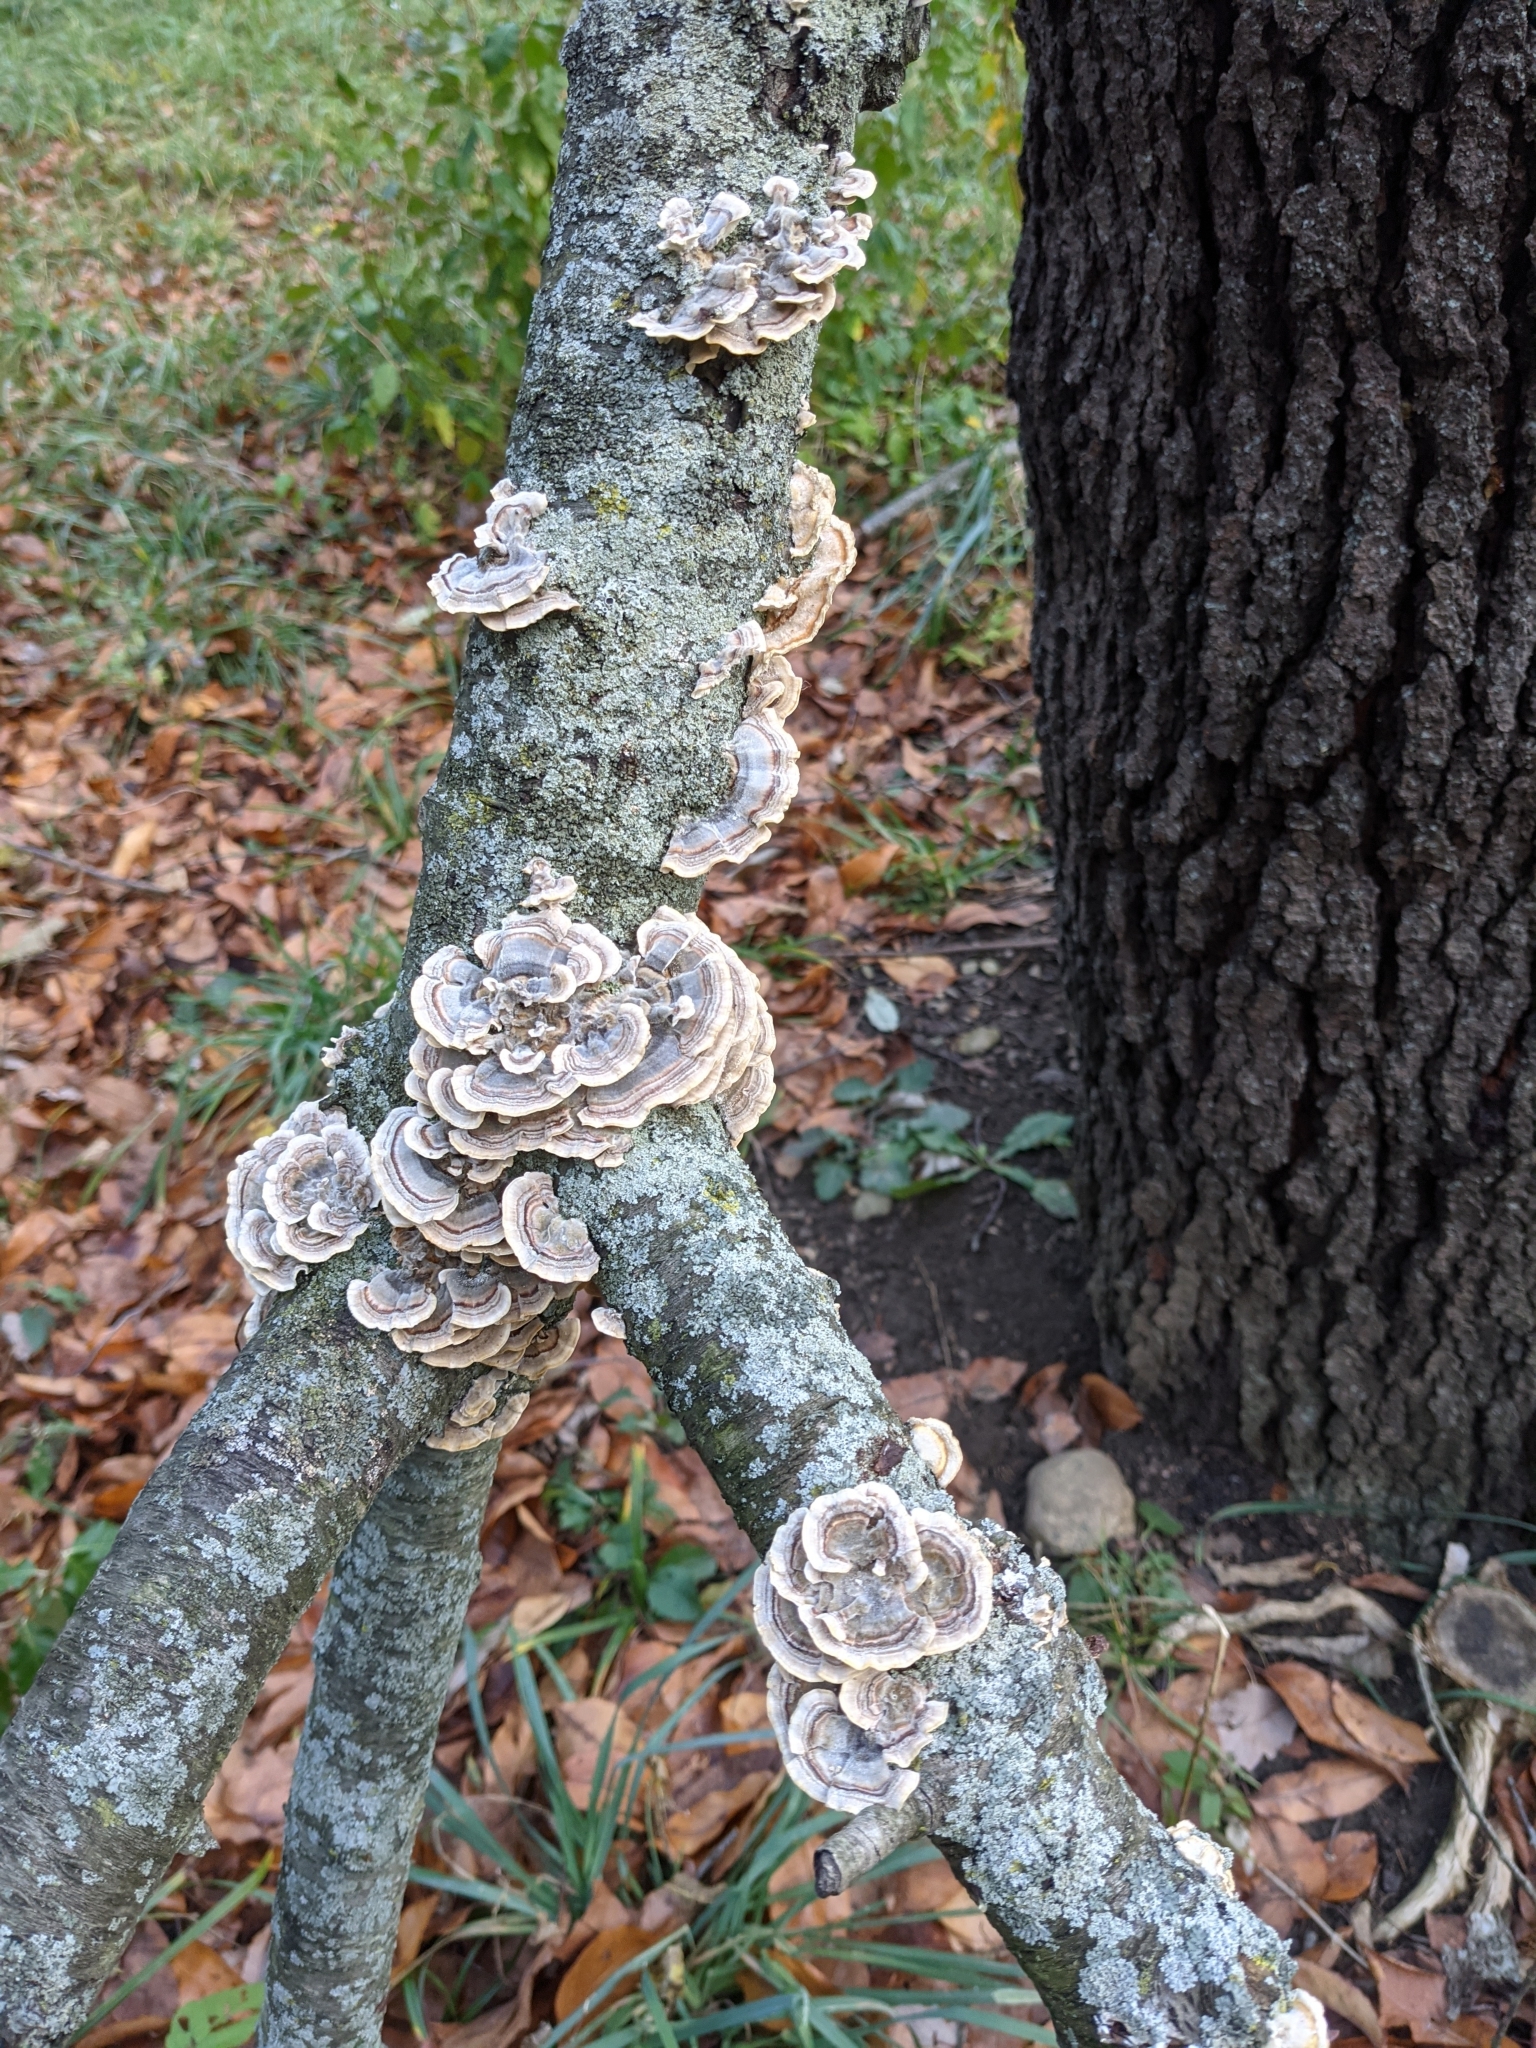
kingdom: Fungi
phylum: Basidiomycota
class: Agaricomycetes
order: Polyporales
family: Polyporaceae
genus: Trametes
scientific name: Trametes versicolor
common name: Turkeytail
